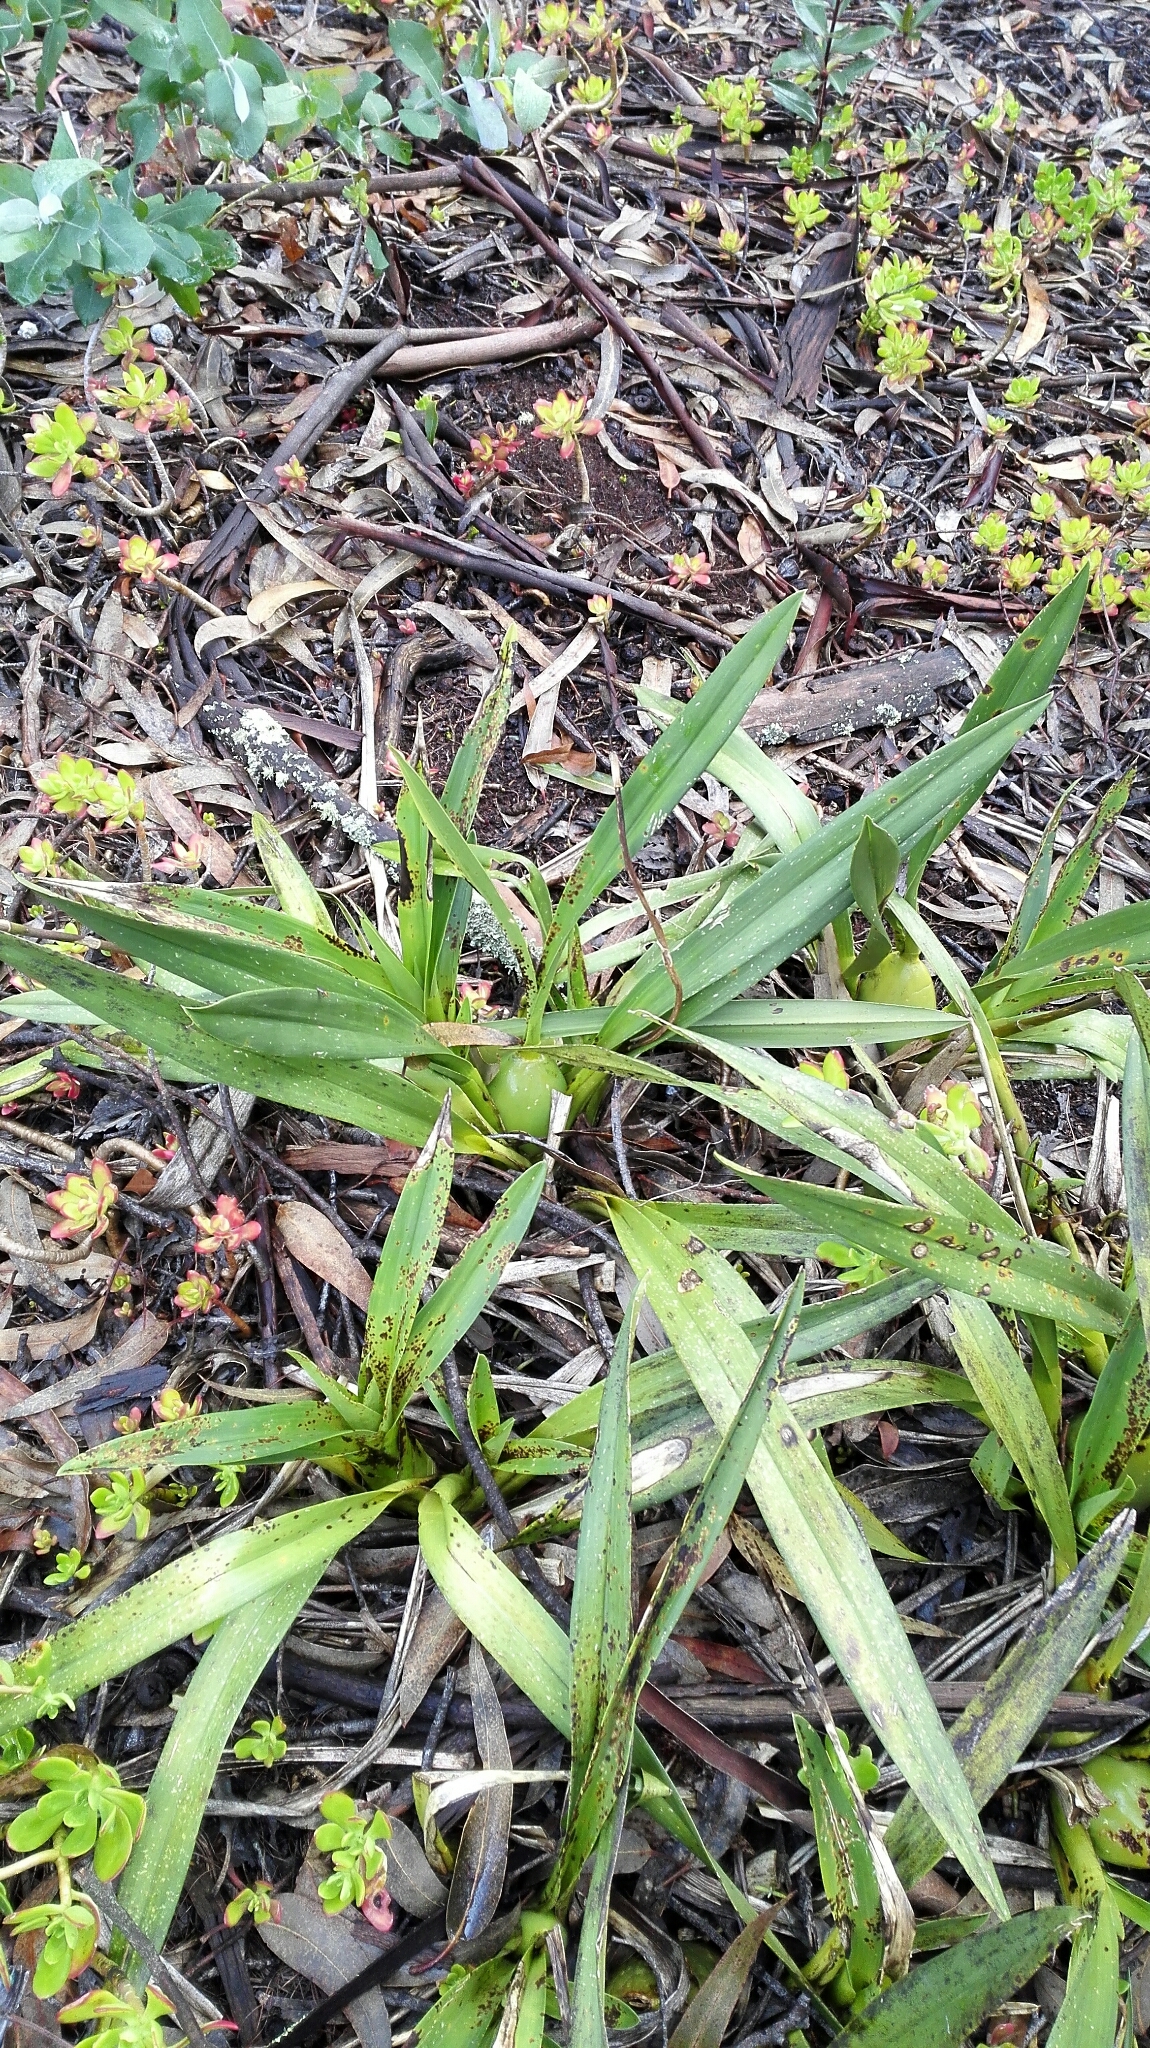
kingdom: Plantae
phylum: Tracheophyta
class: Liliopsida
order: Asparagales
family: Orchidaceae
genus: Cyrtochilum
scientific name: Cyrtochilum revolutum
